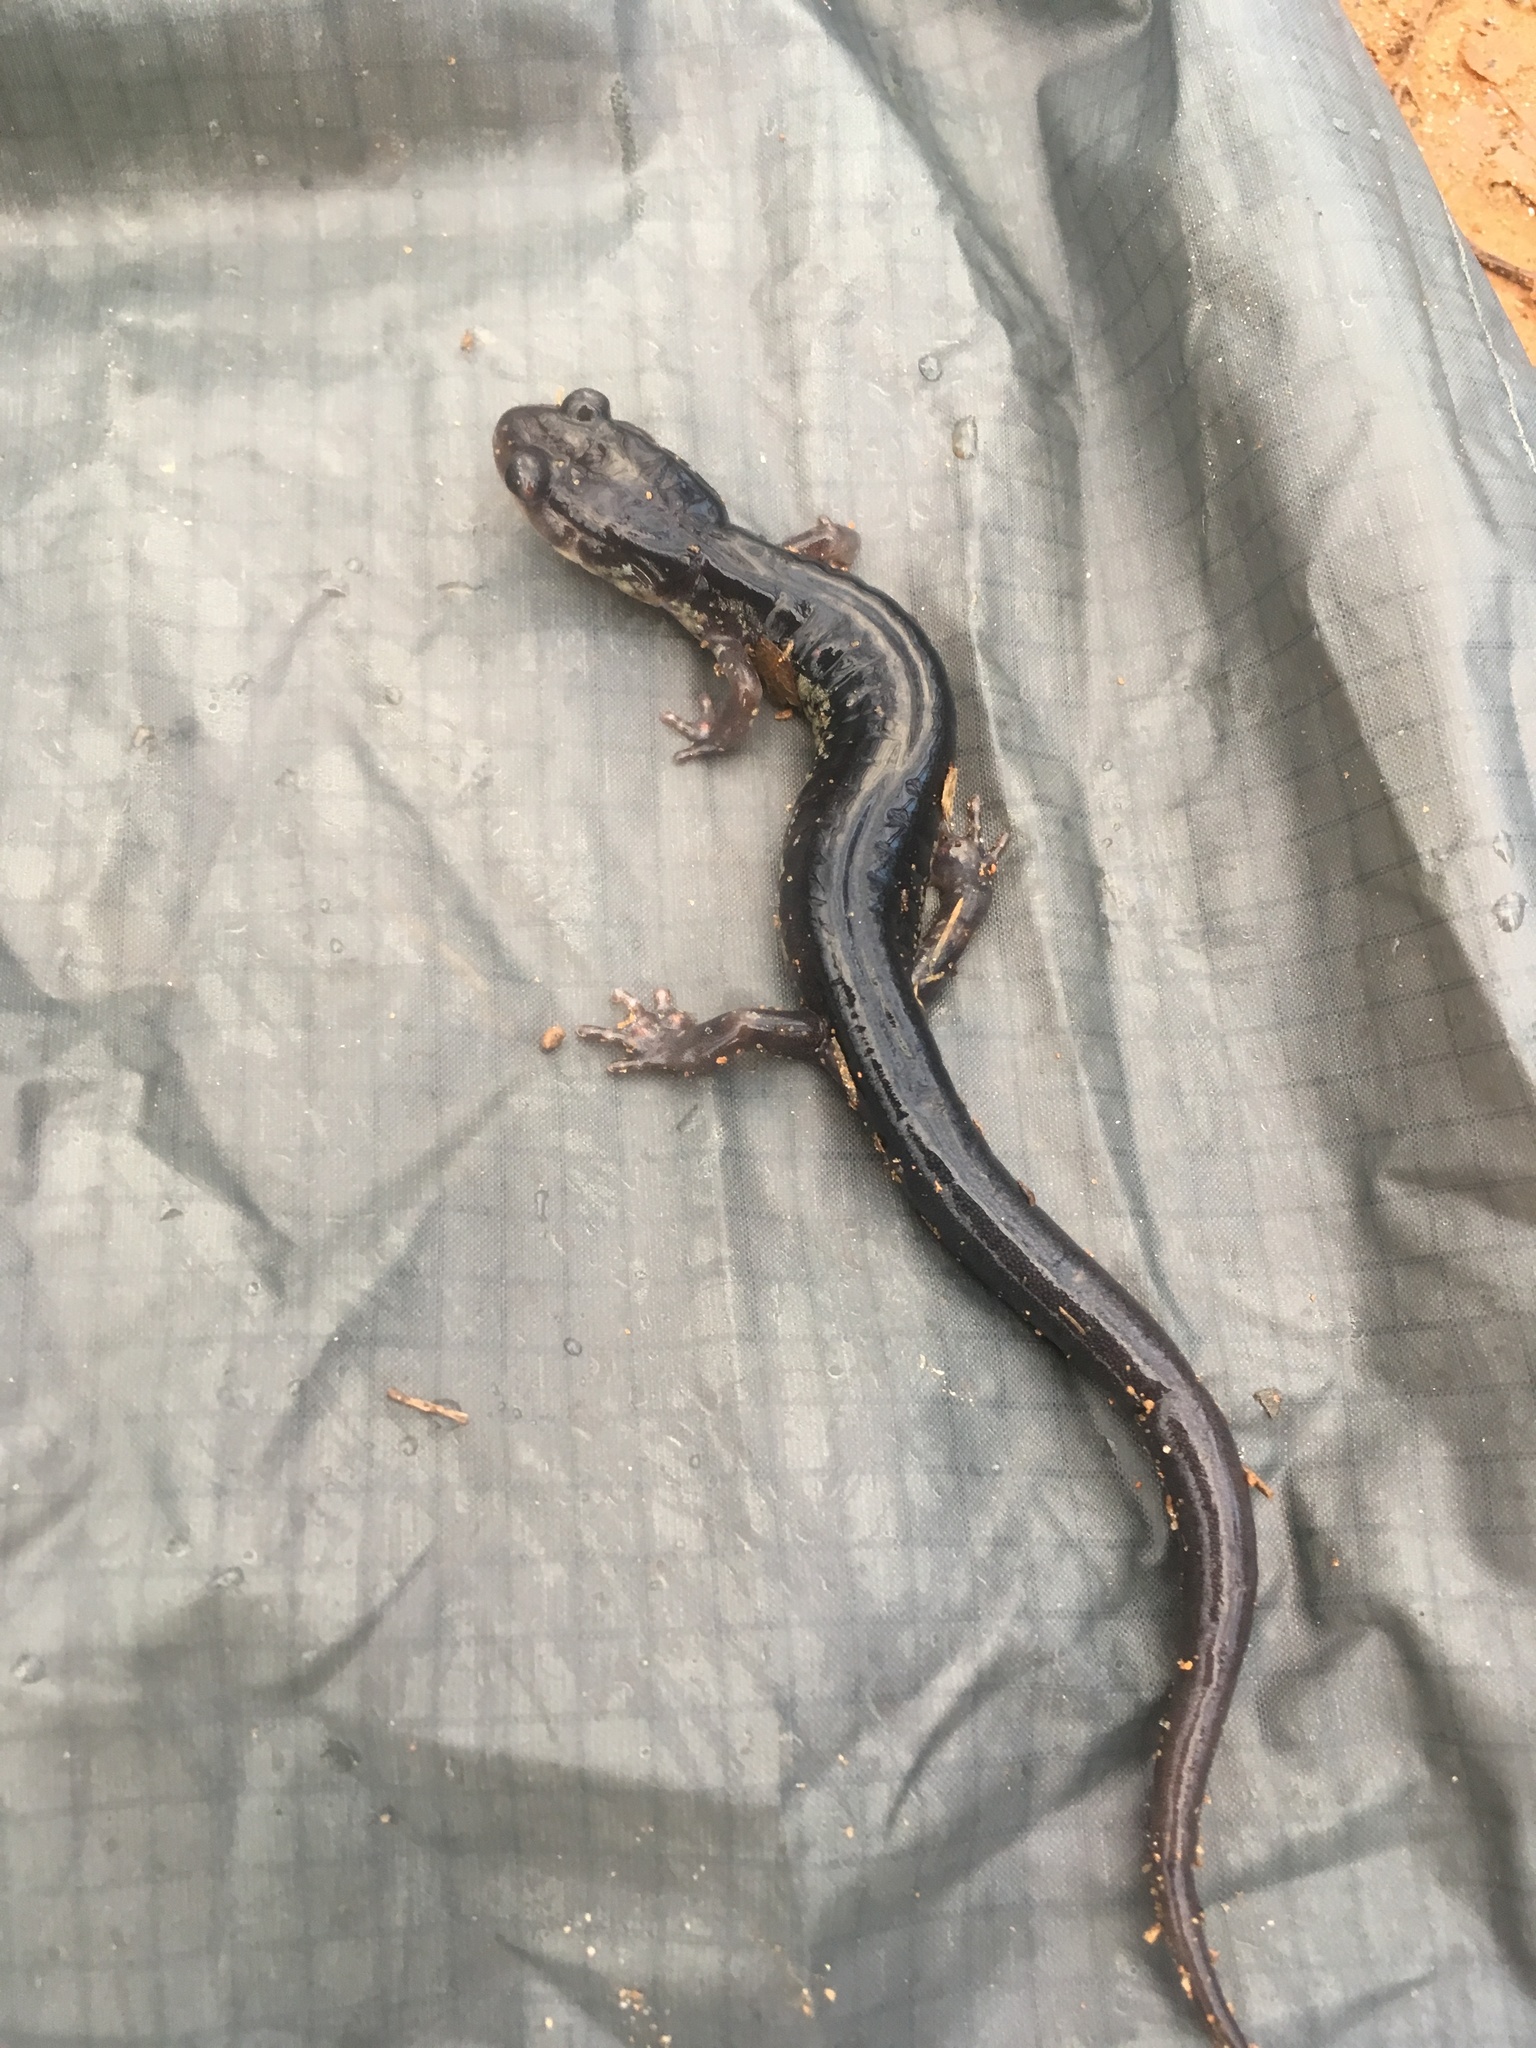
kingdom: Animalia
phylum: Chordata
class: Amphibia
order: Caudata
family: Plethodontidae
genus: Plethodon
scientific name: Plethodon chattahoochee
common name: Chattahoochee slimy salamander
